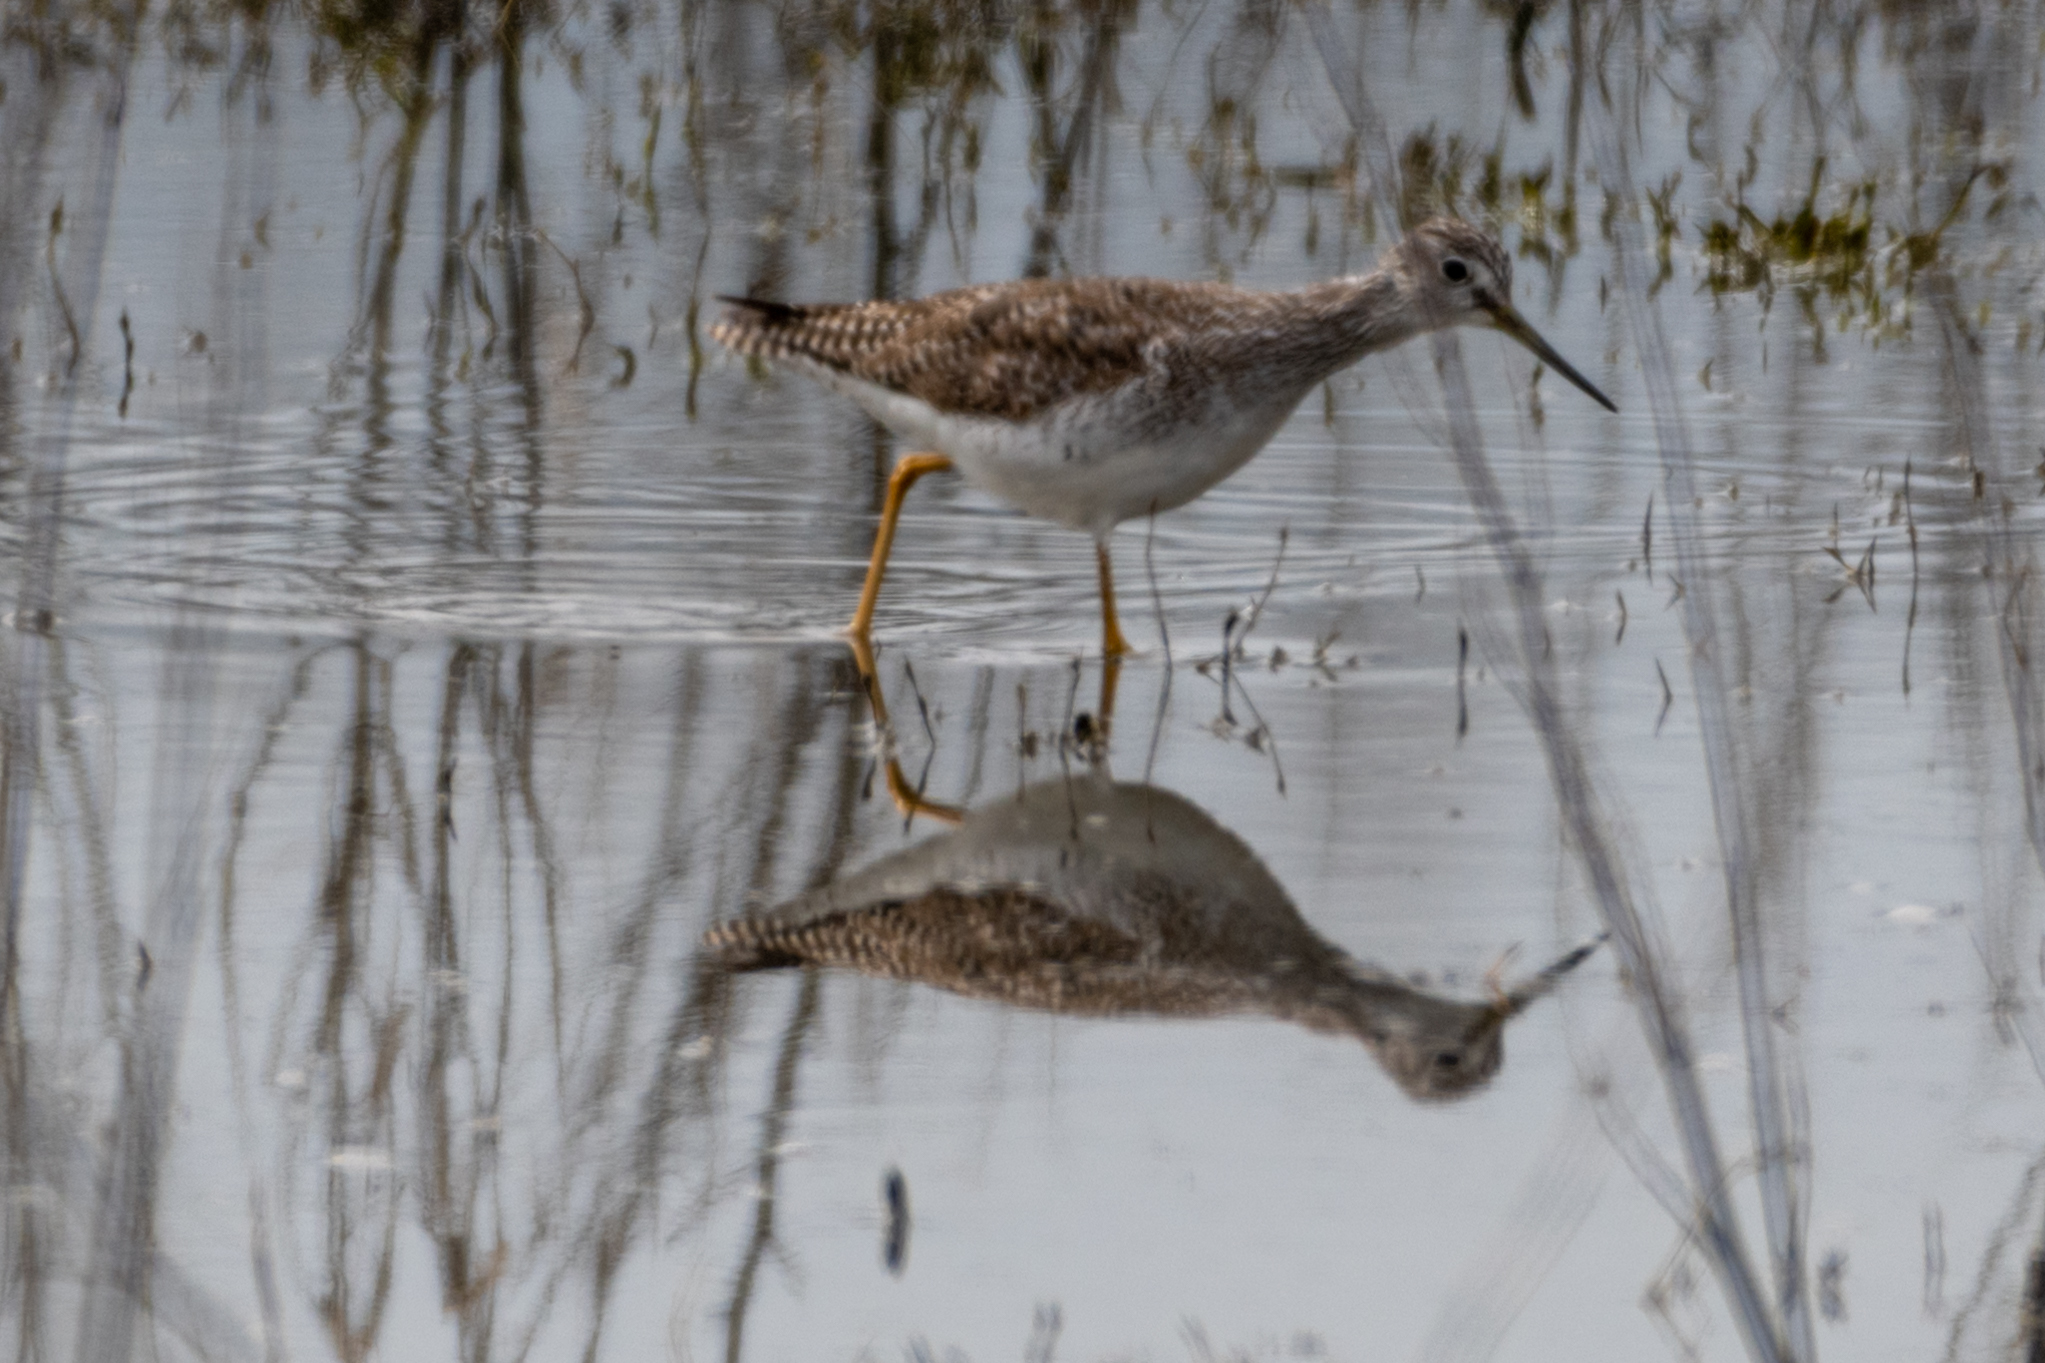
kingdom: Animalia
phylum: Chordata
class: Aves
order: Charadriiformes
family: Scolopacidae
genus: Tringa
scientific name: Tringa melanoleuca
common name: Greater yellowlegs
